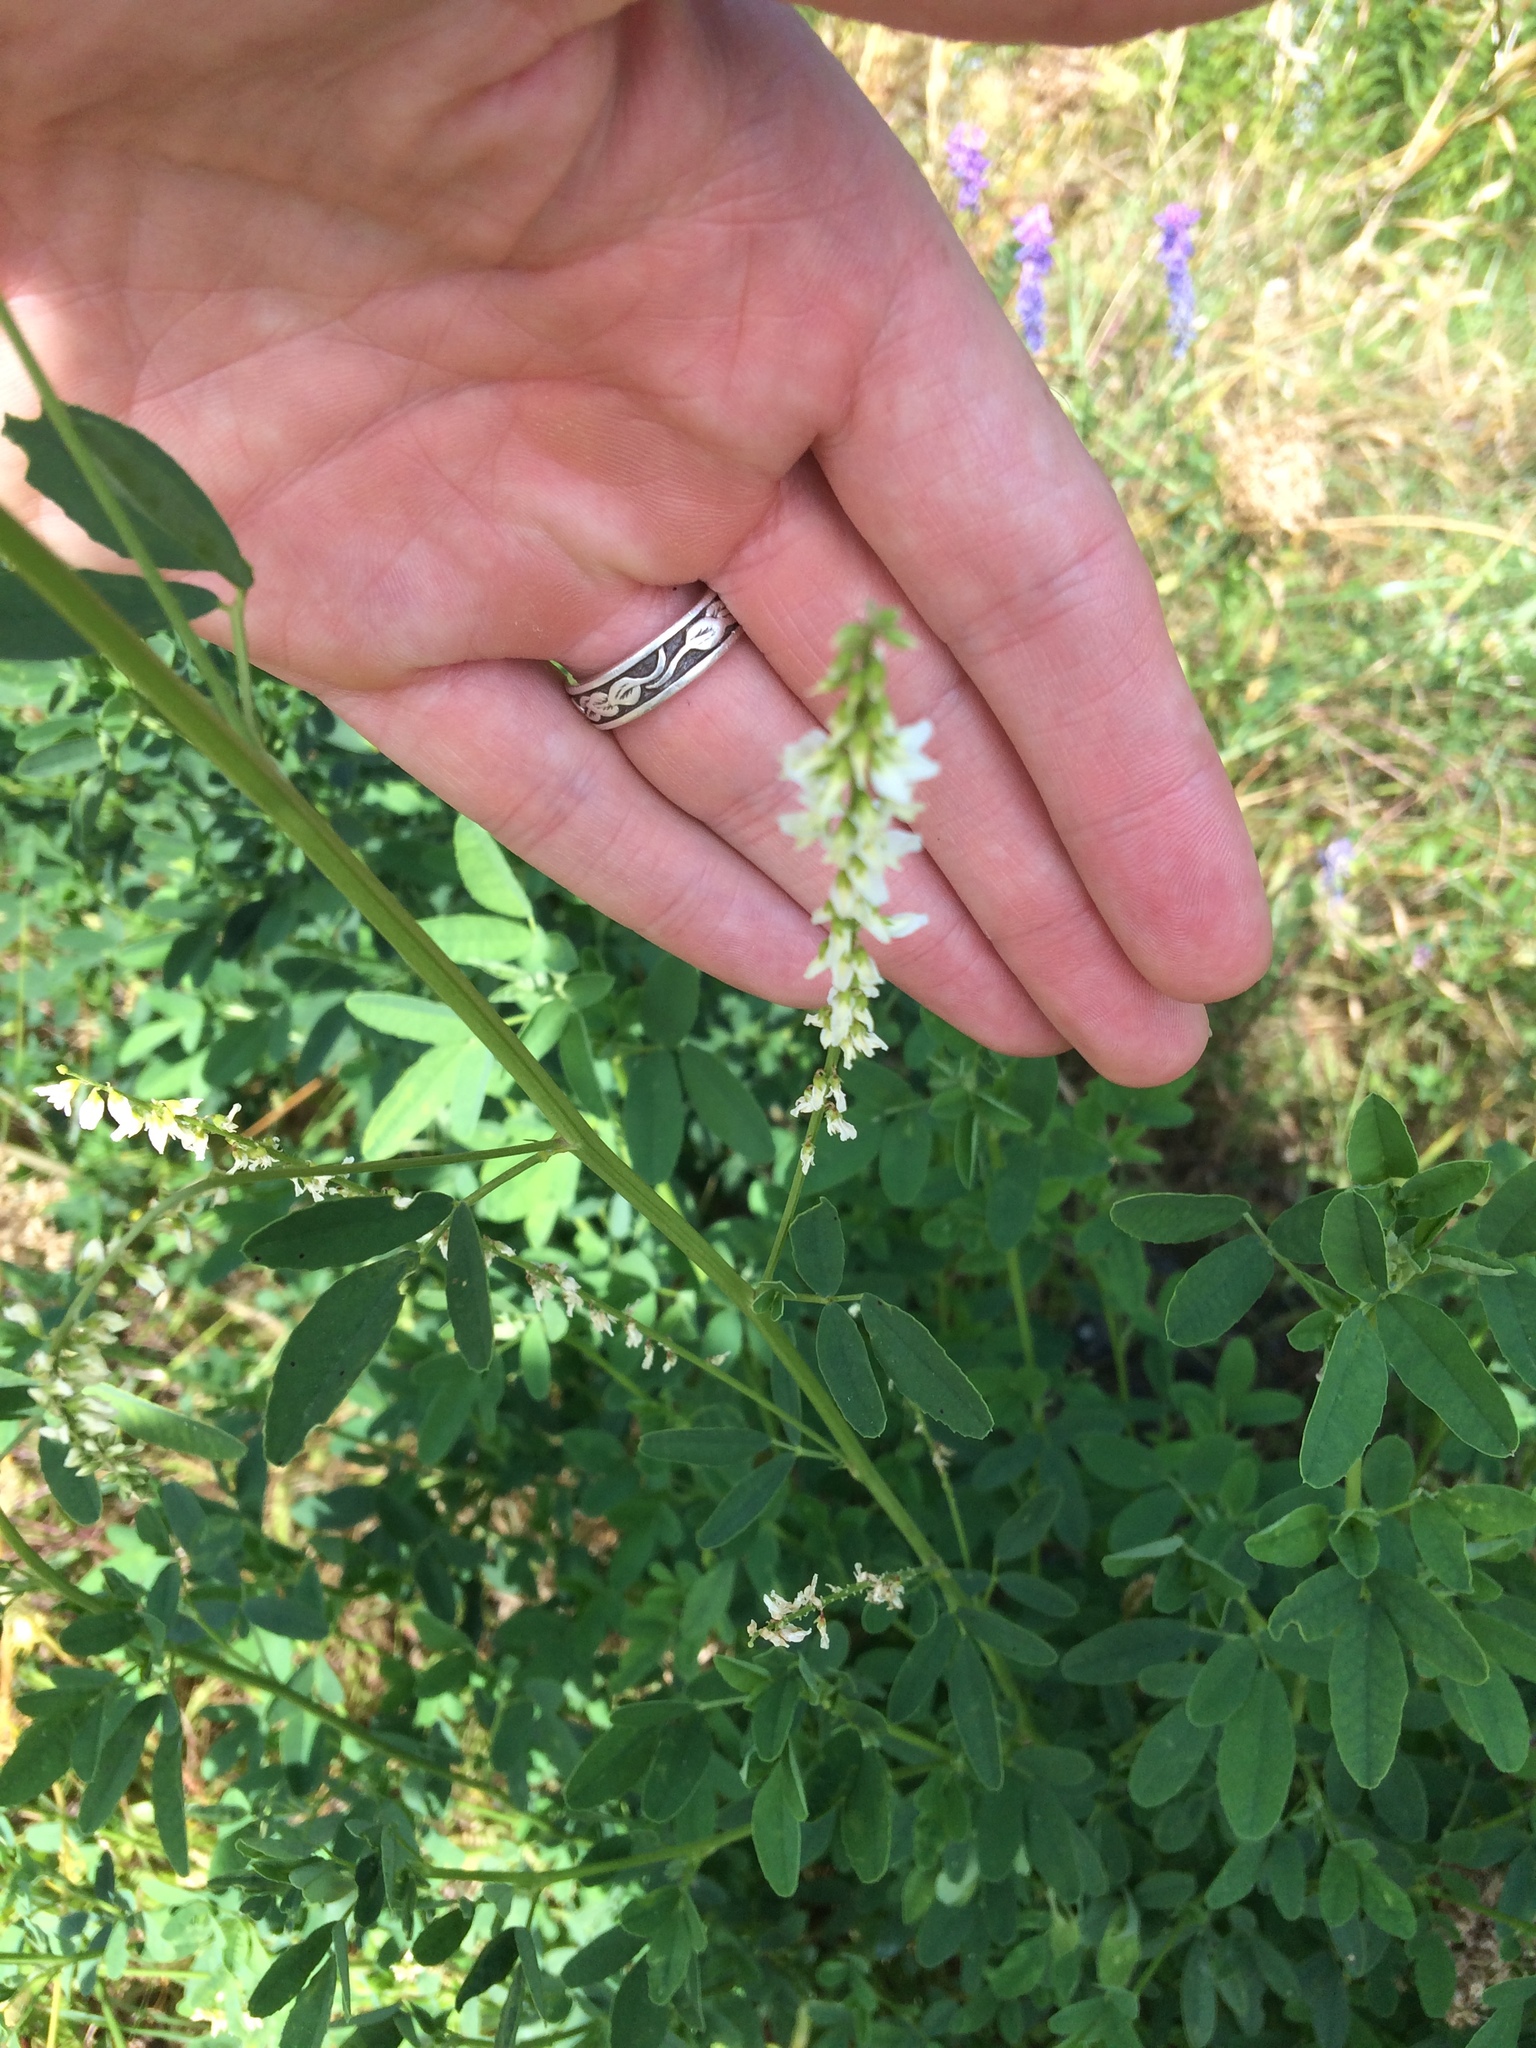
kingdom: Plantae
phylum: Tracheophyta
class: Magnoliopsida
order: Fabales
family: Fabaceae
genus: Melilotus
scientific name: Melilotus albus
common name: White melilot
